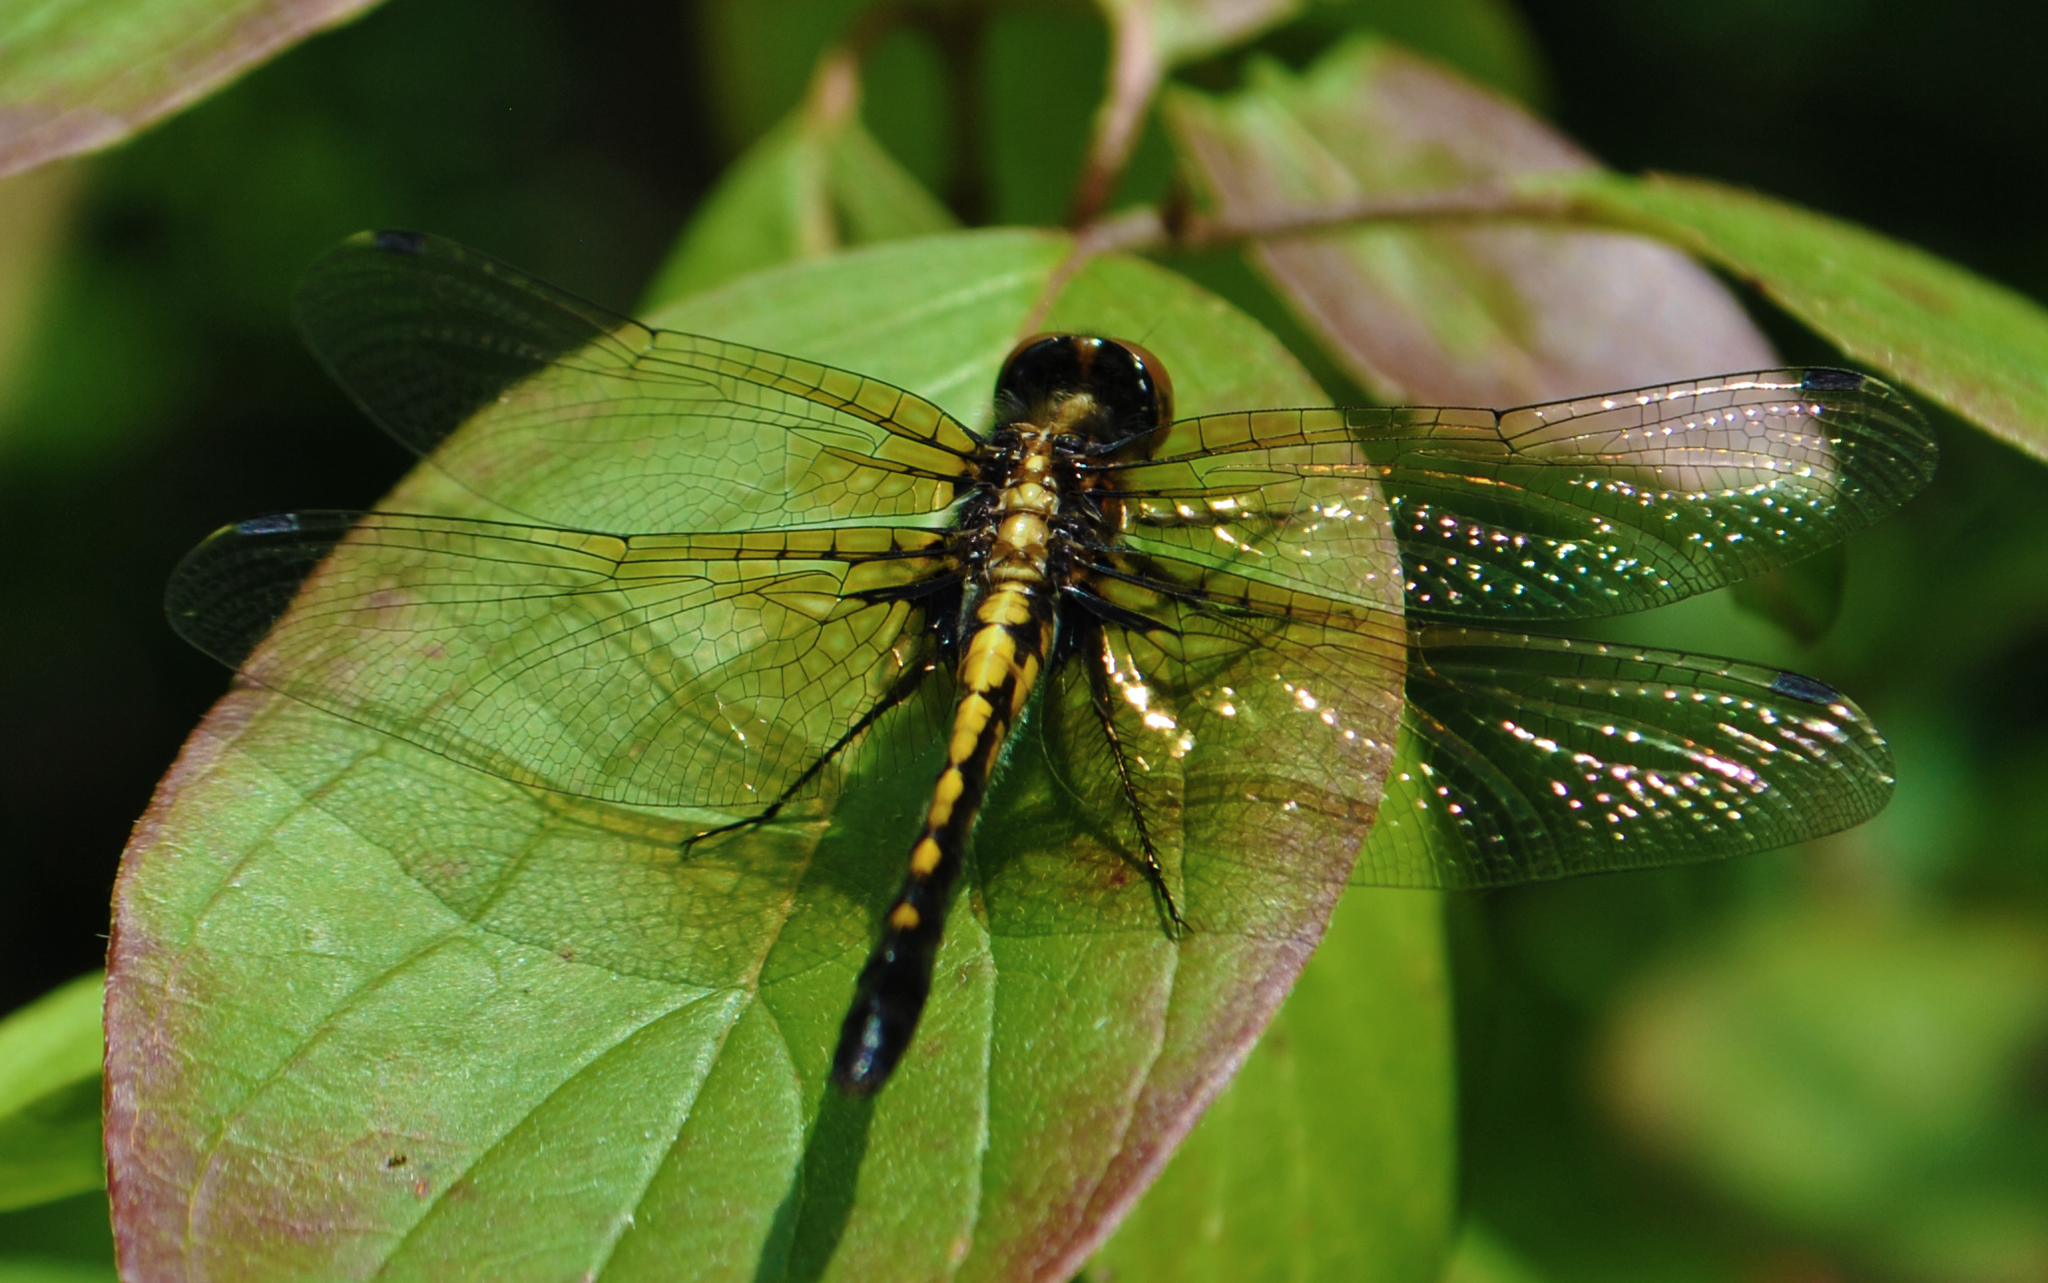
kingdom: Animalia
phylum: Arthropoda
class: Insecta
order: Odonata
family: Libellulidae
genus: Leucorrhinia
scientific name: Leucorrhinia intacta
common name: Dot-tailed whiteface
